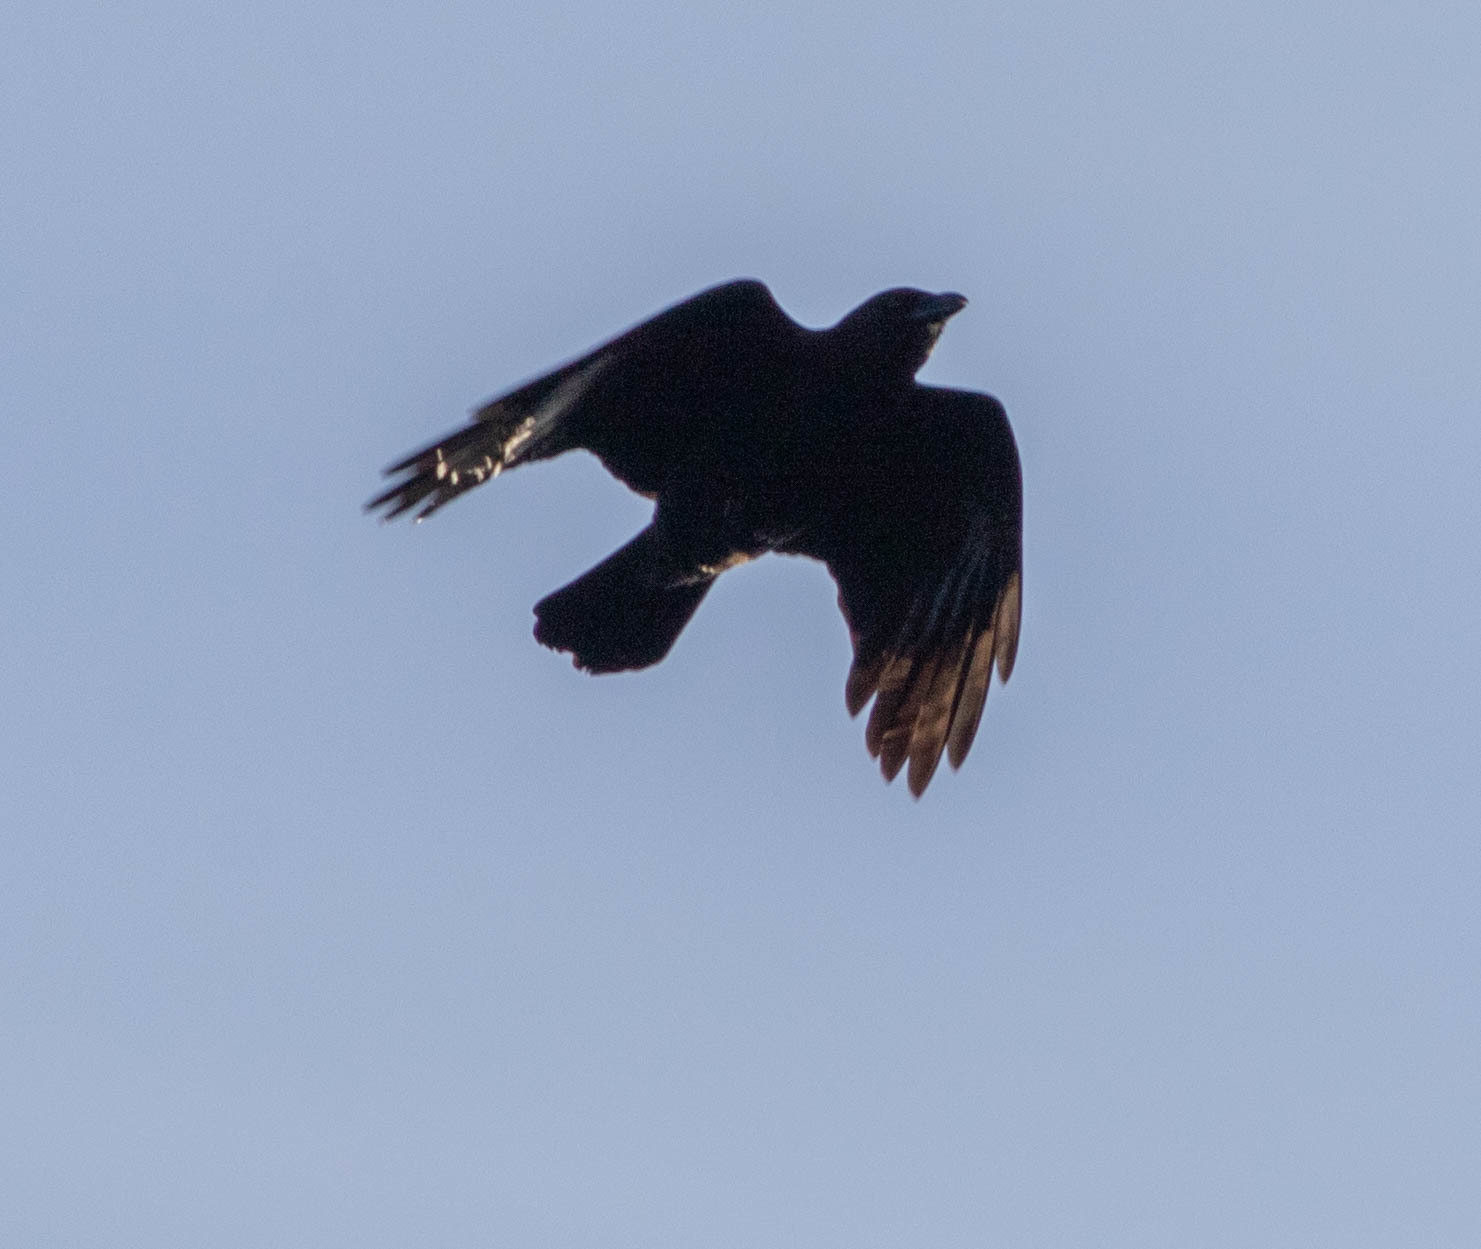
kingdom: Animalia
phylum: Chordata
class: Aves
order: Passeriformes
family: Corvidae
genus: Corvus
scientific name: Corvus brachyrhynchos
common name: American crow
